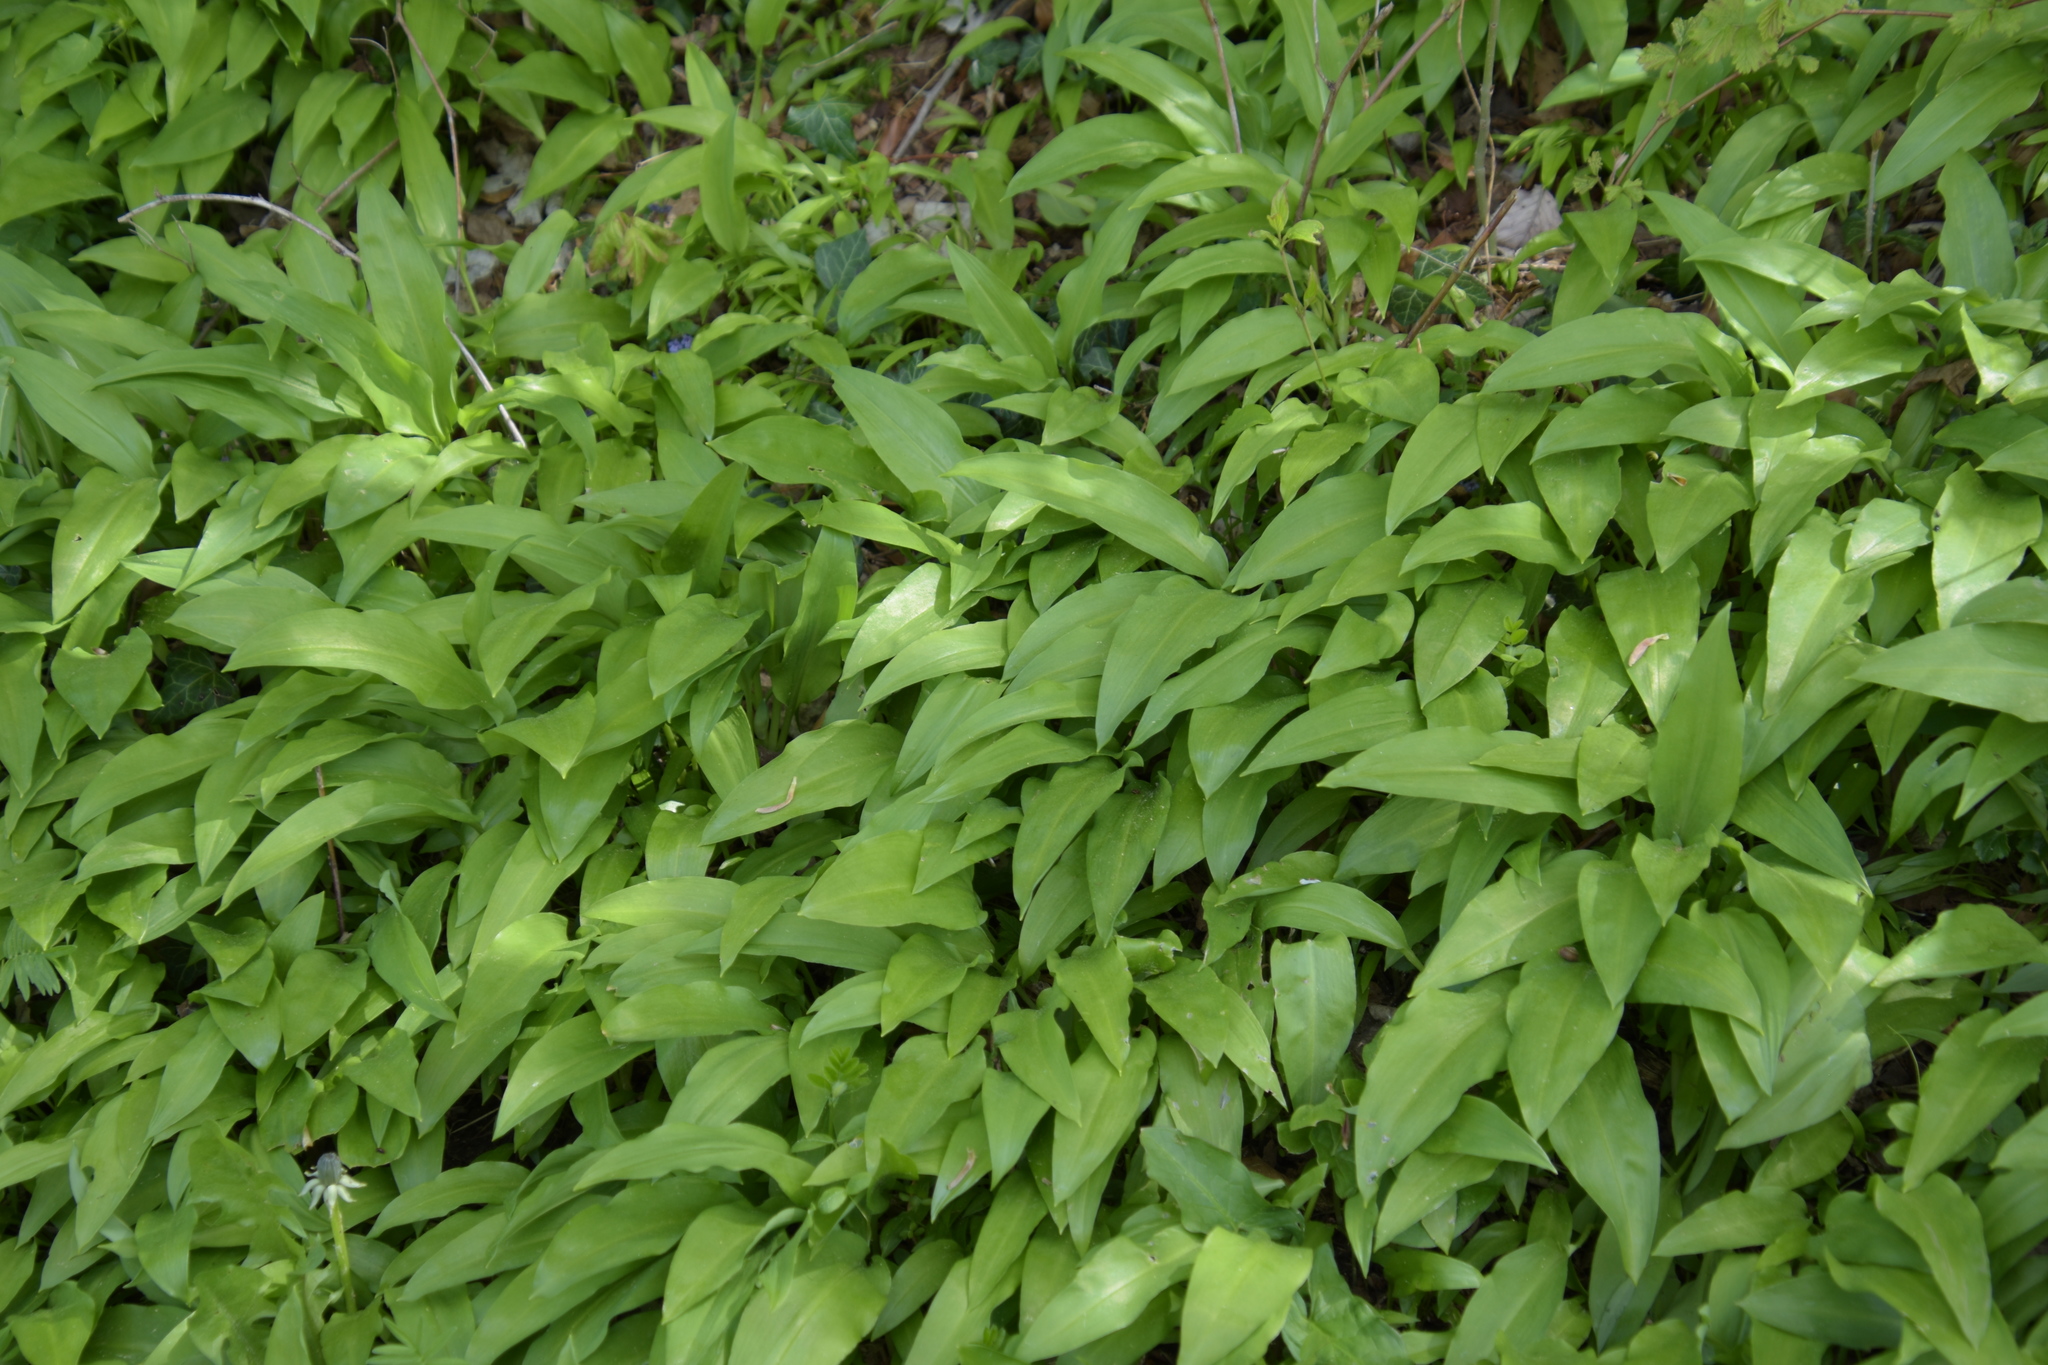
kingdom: Plantae
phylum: Tracheophyta
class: Liliopsida
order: Asparagales
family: Amaryllidaceae
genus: Allium
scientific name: Allium ursinum
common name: Ramsons
